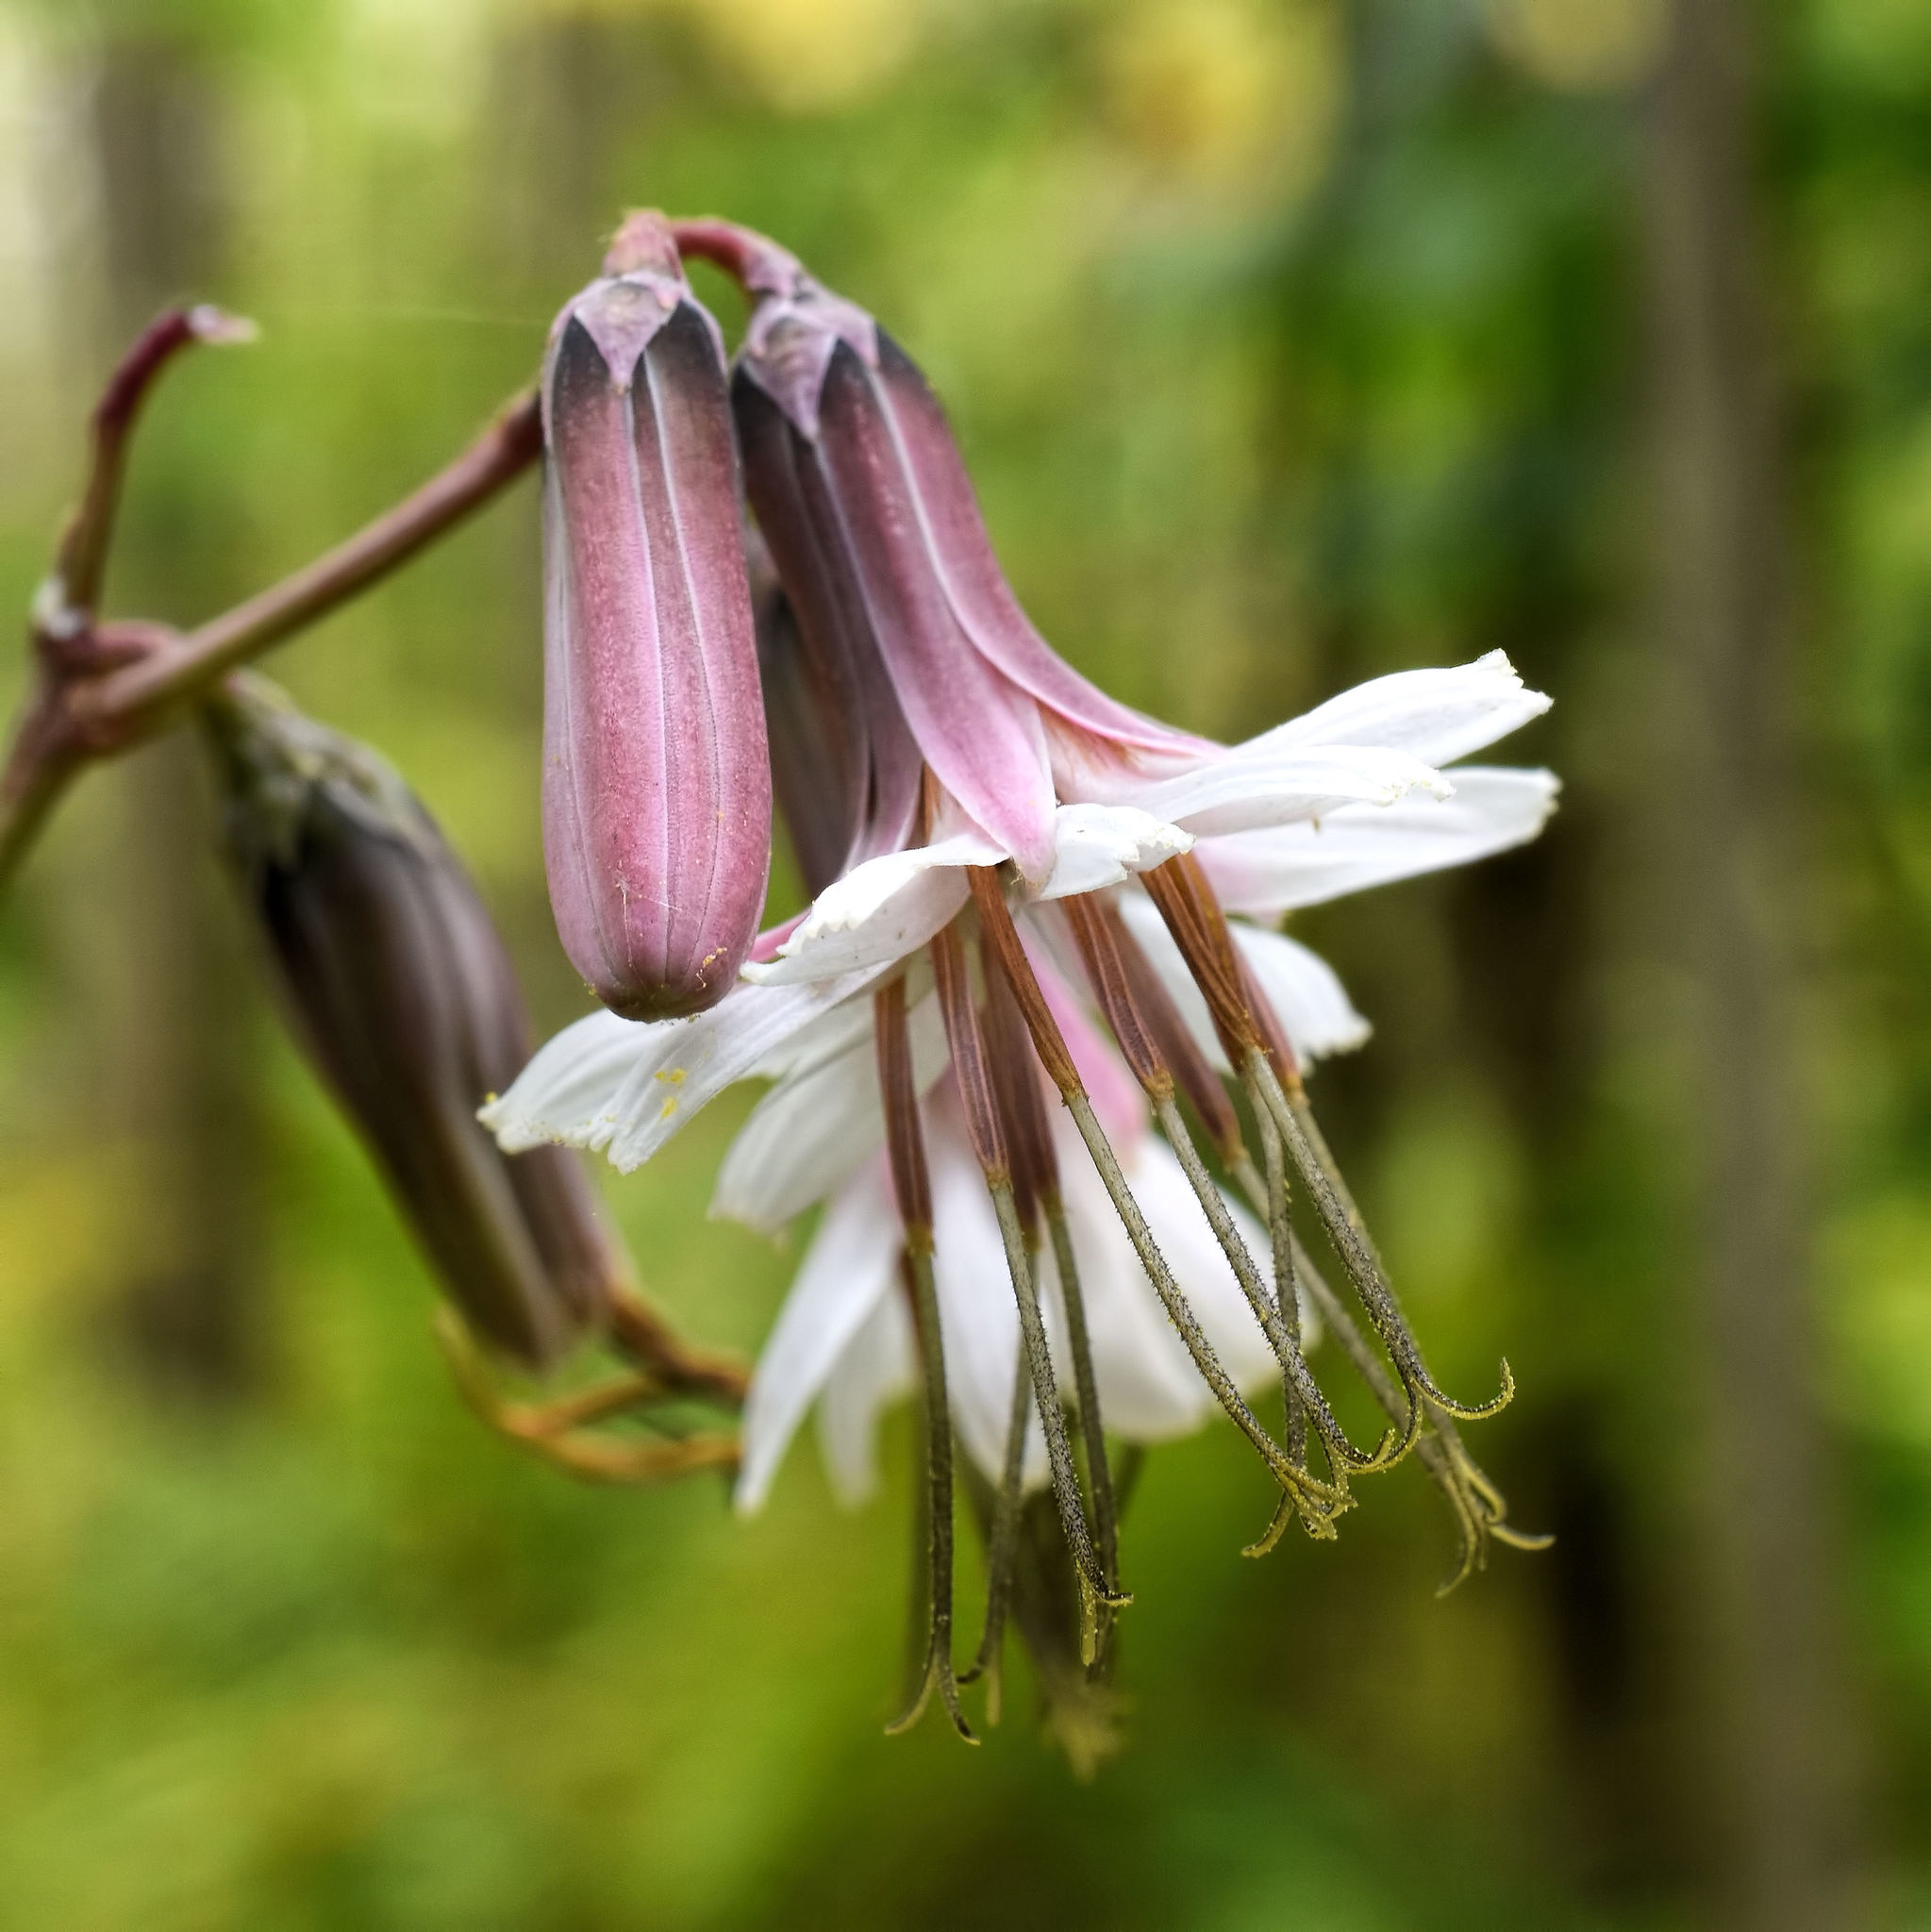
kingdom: Plantae
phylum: Tracheophyta
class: Magnoliopsida
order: Asterales
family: Asteraceae
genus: Nabalus
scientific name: Nabalus albus
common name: White rattlesnakeroot
